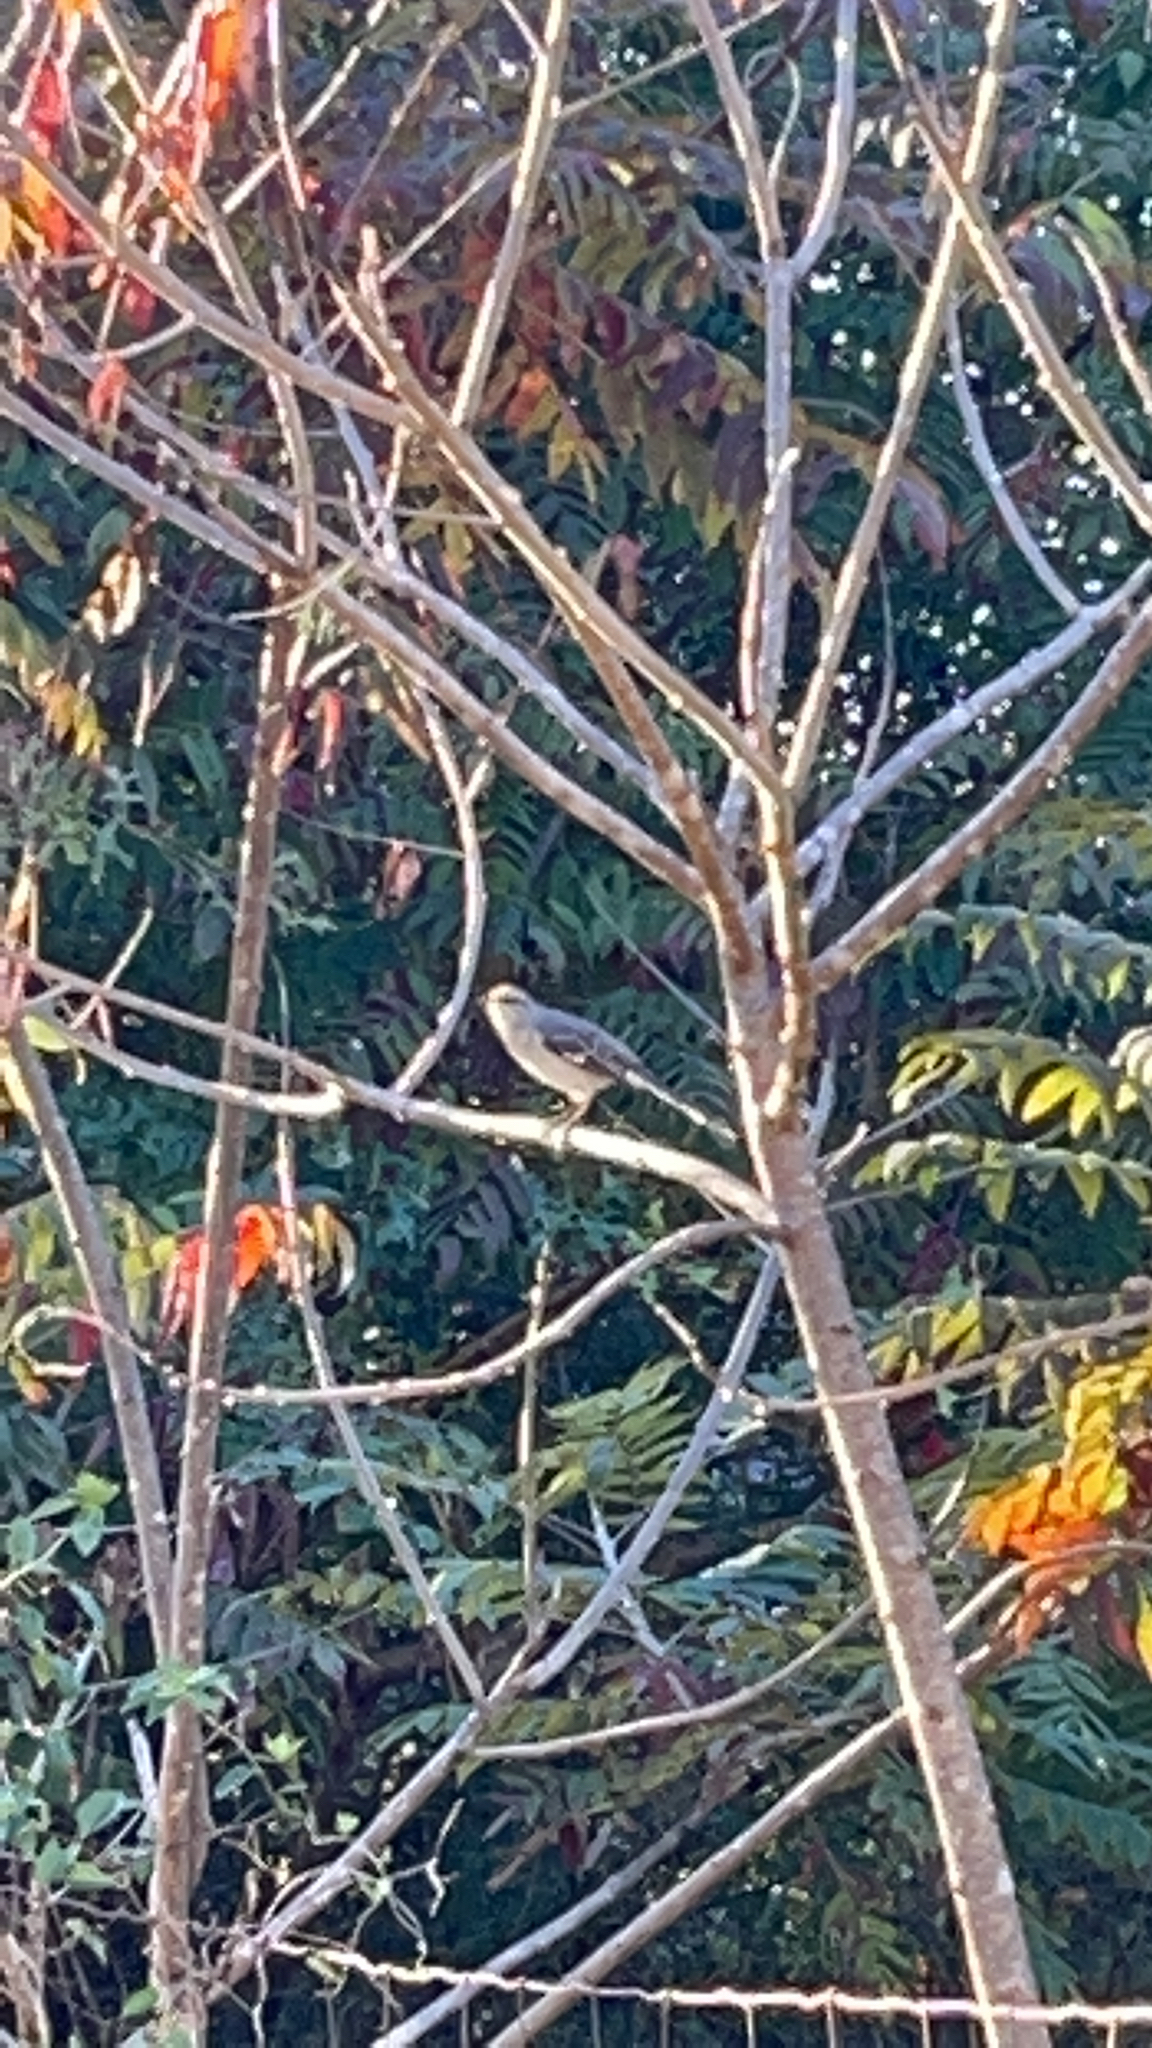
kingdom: Animalia
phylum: Chordata
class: Aves
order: Passeriformes
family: Mimidae
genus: Mimus
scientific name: Mimus polyglottos
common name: Northern mockingbird
